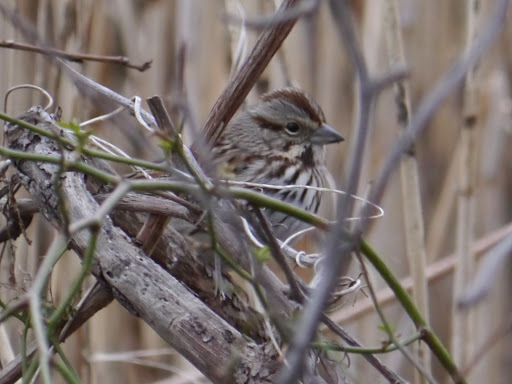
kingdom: Animalia
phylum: Chordata
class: Aves
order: Passeriformes
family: Passerellidae
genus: Melospiza
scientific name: Melospiza melodia
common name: Song sparrow
